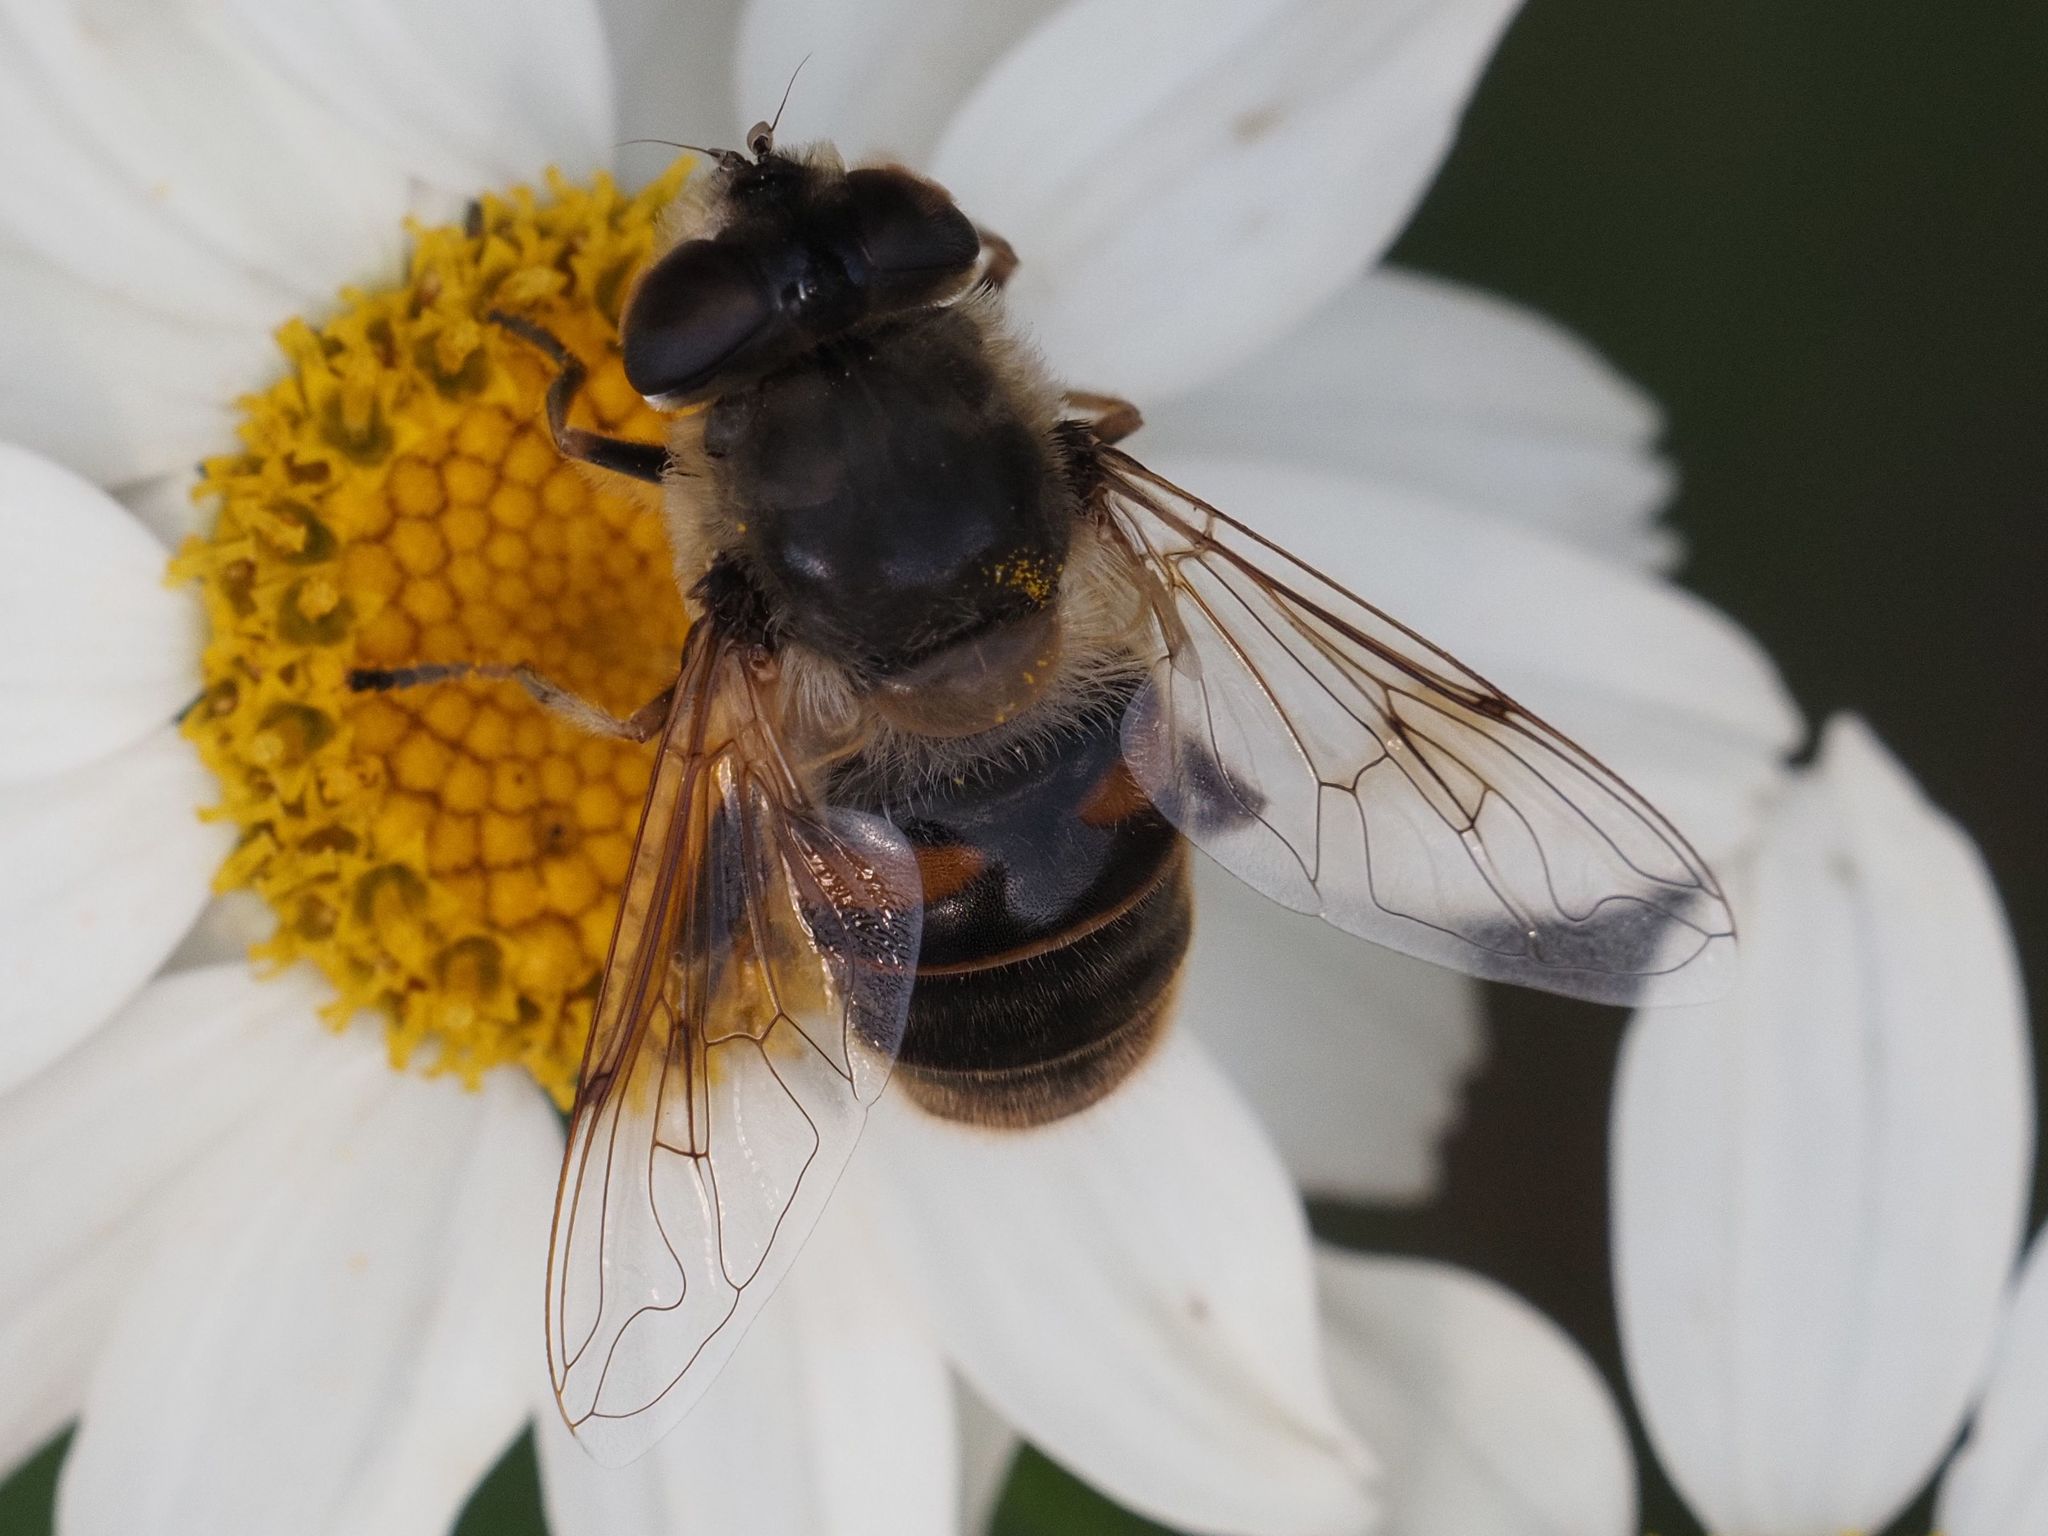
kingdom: Animalia
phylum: Arthropoda
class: Insecta
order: Diptera
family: Syrphidae
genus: Eristalis
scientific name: Eristalis tenax
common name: Drone fly
